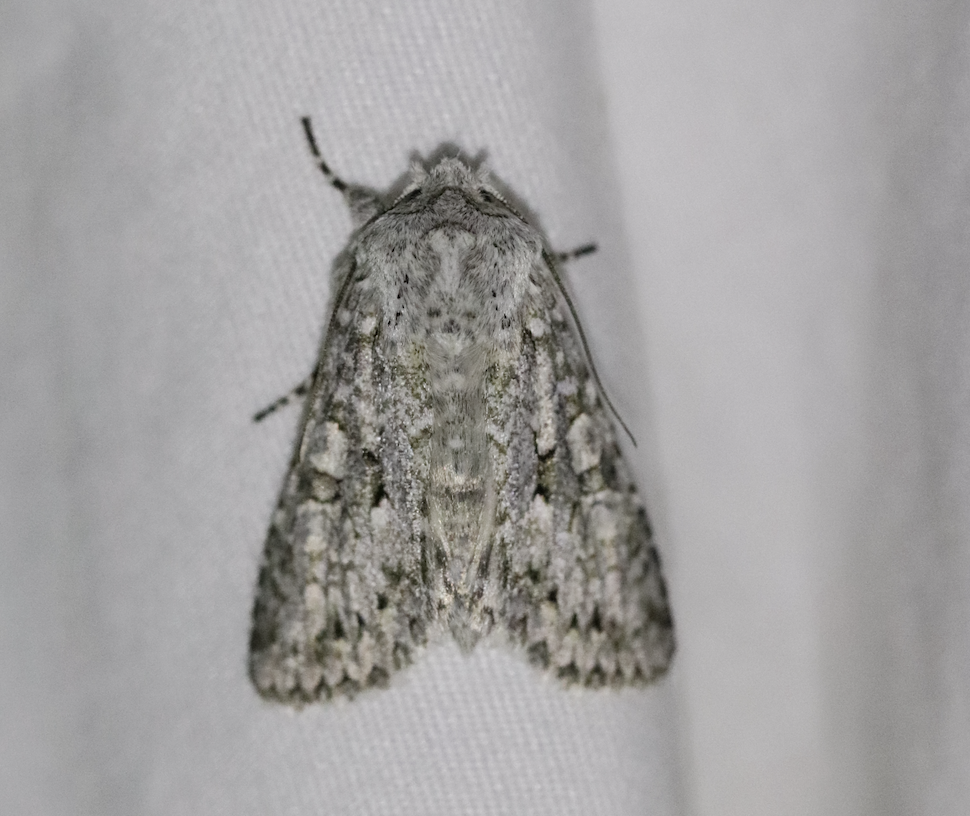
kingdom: Animalia
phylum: Arthropoda
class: Insecta
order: Lepidoptera
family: Noctuidae
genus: Antitype
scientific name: Antitype chi
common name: Grey chi
